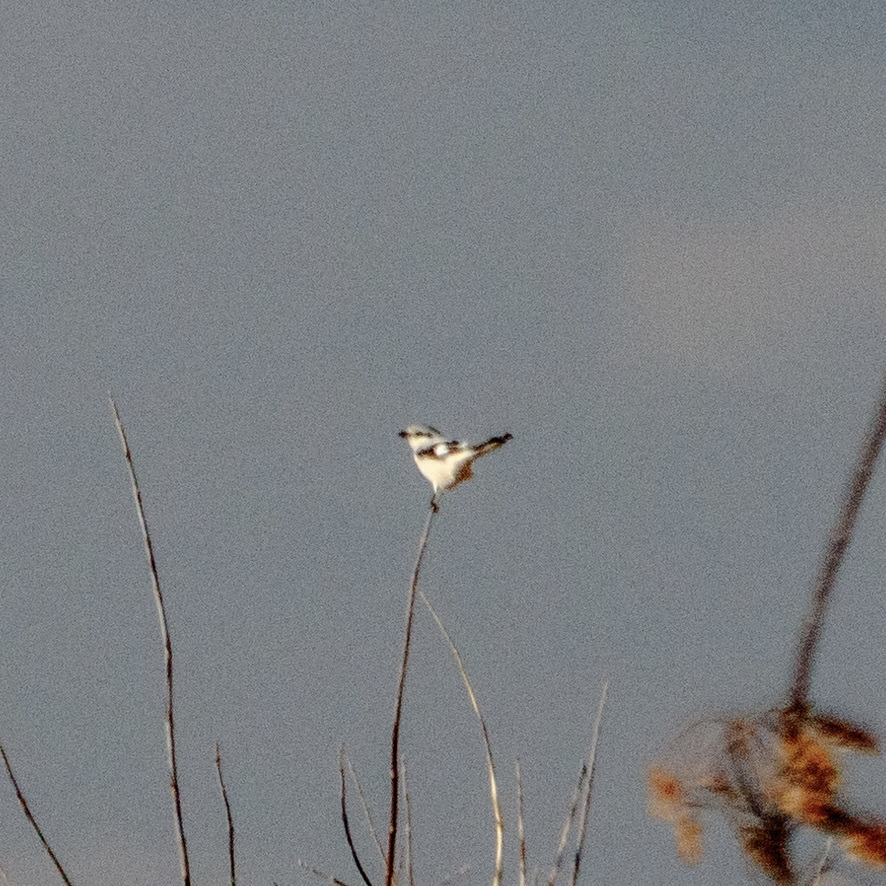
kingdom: Animalia
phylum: Chordata
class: Aves
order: Passeriformes
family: Laniidae
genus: Lanius
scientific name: Lanius excubitor
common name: Great grey shrike
